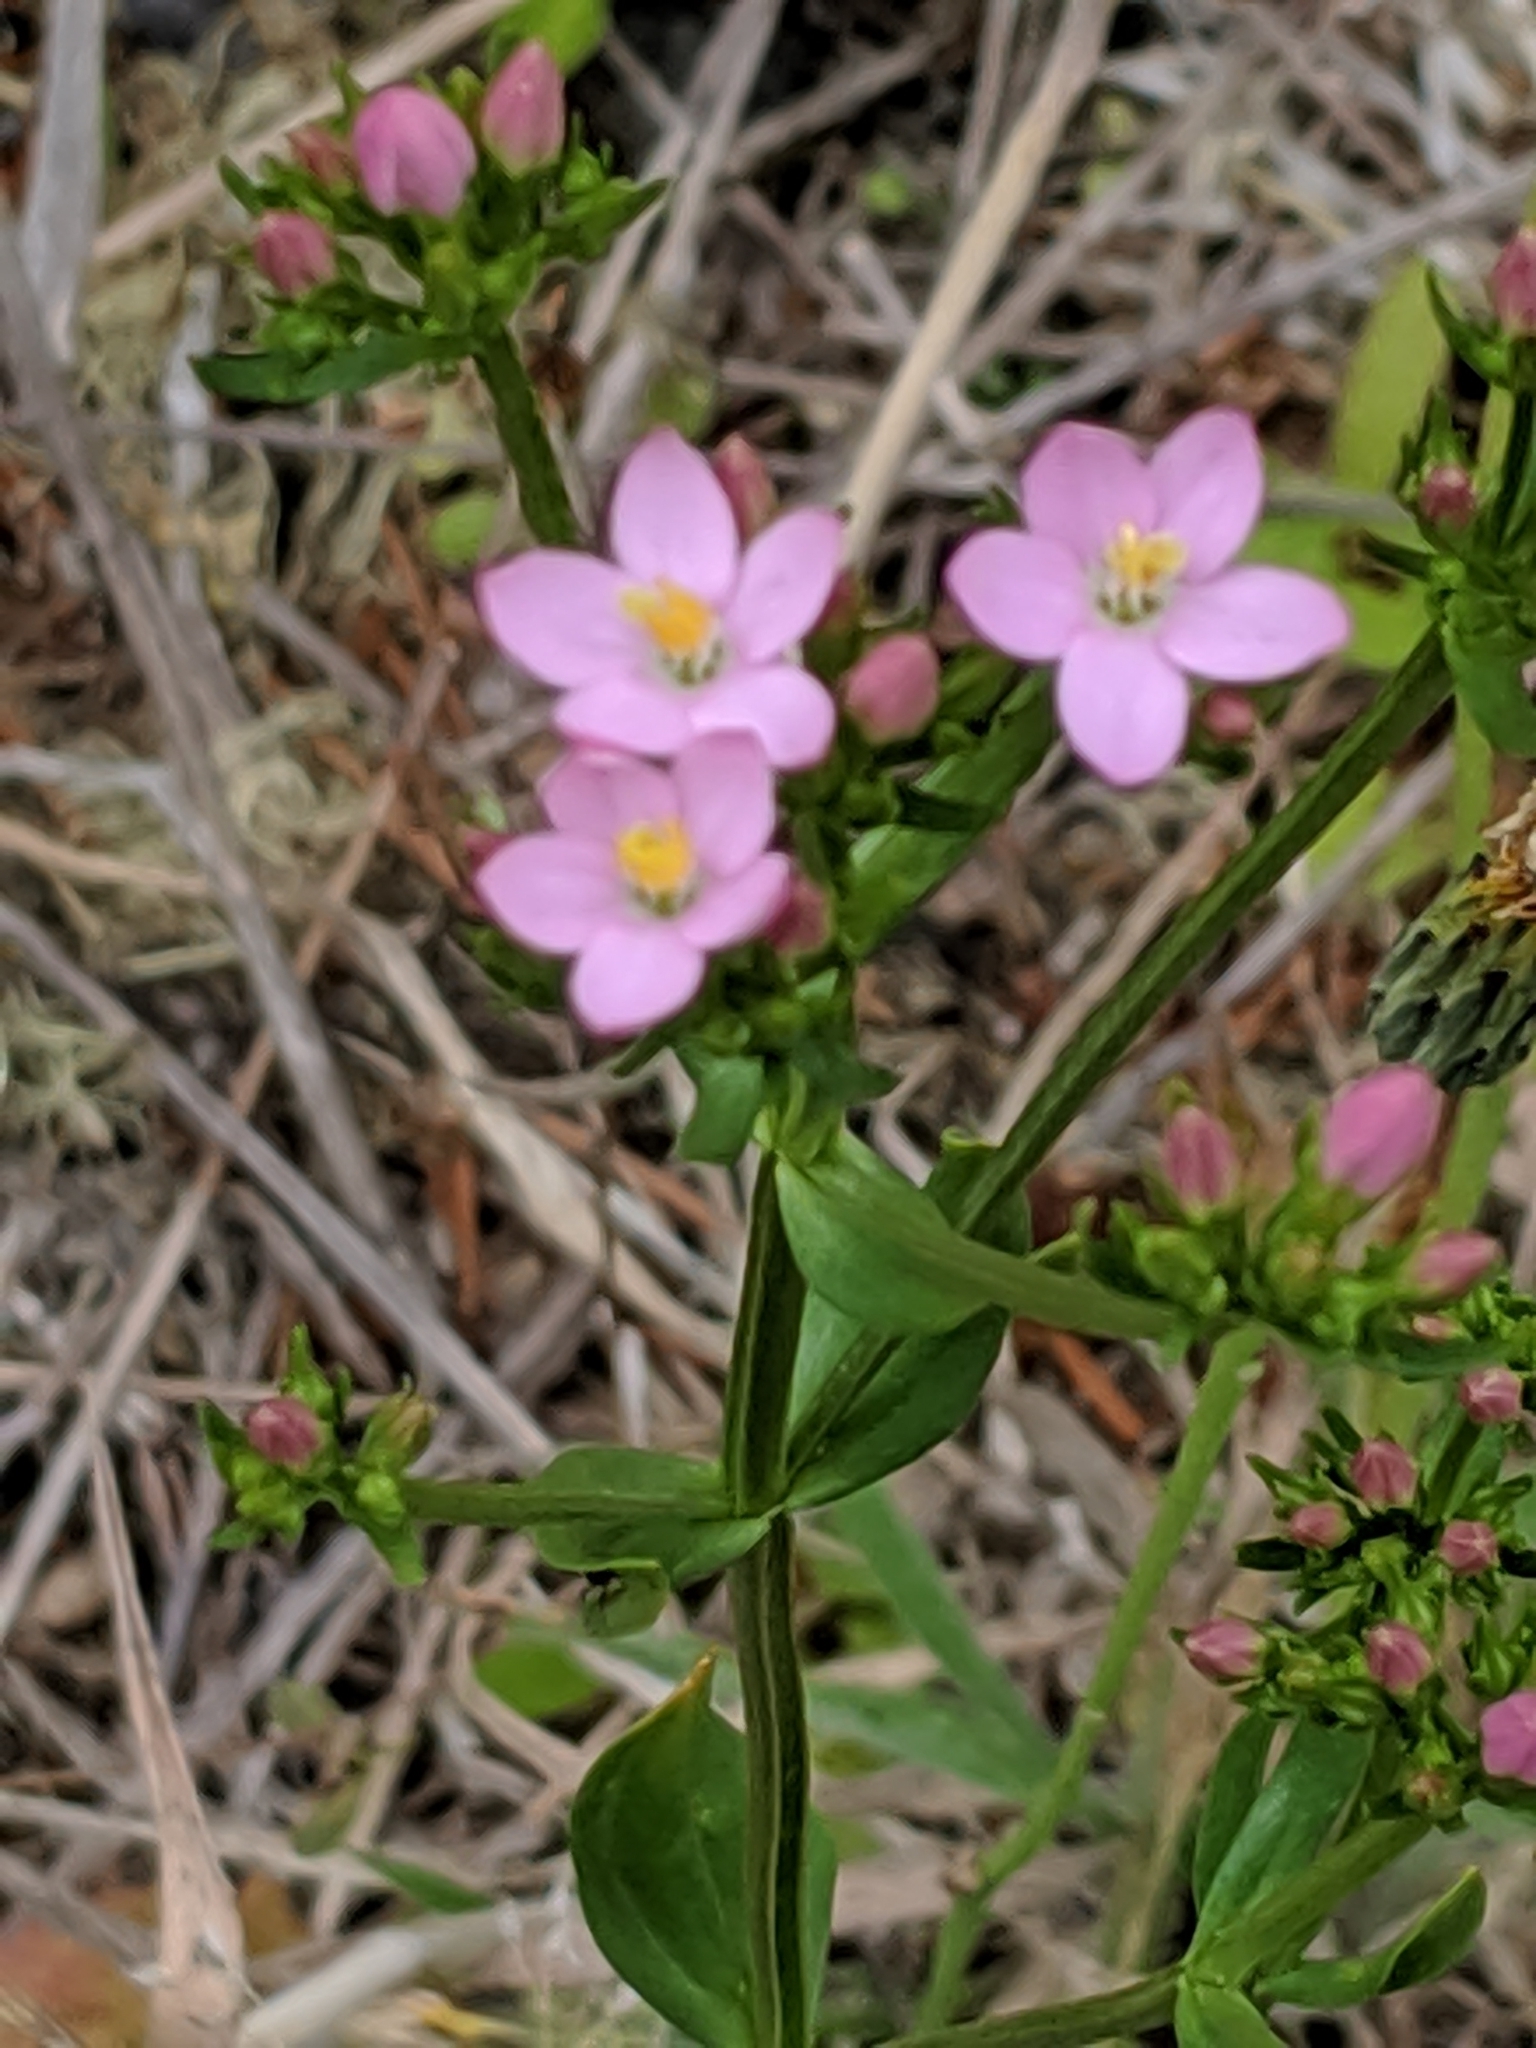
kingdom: Plantae
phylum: Tracheophyta
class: Magnoliopsida
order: Gentianales
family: Gentianaceae
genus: Centaurium
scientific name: Centaurium erythraea
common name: Common centaury
